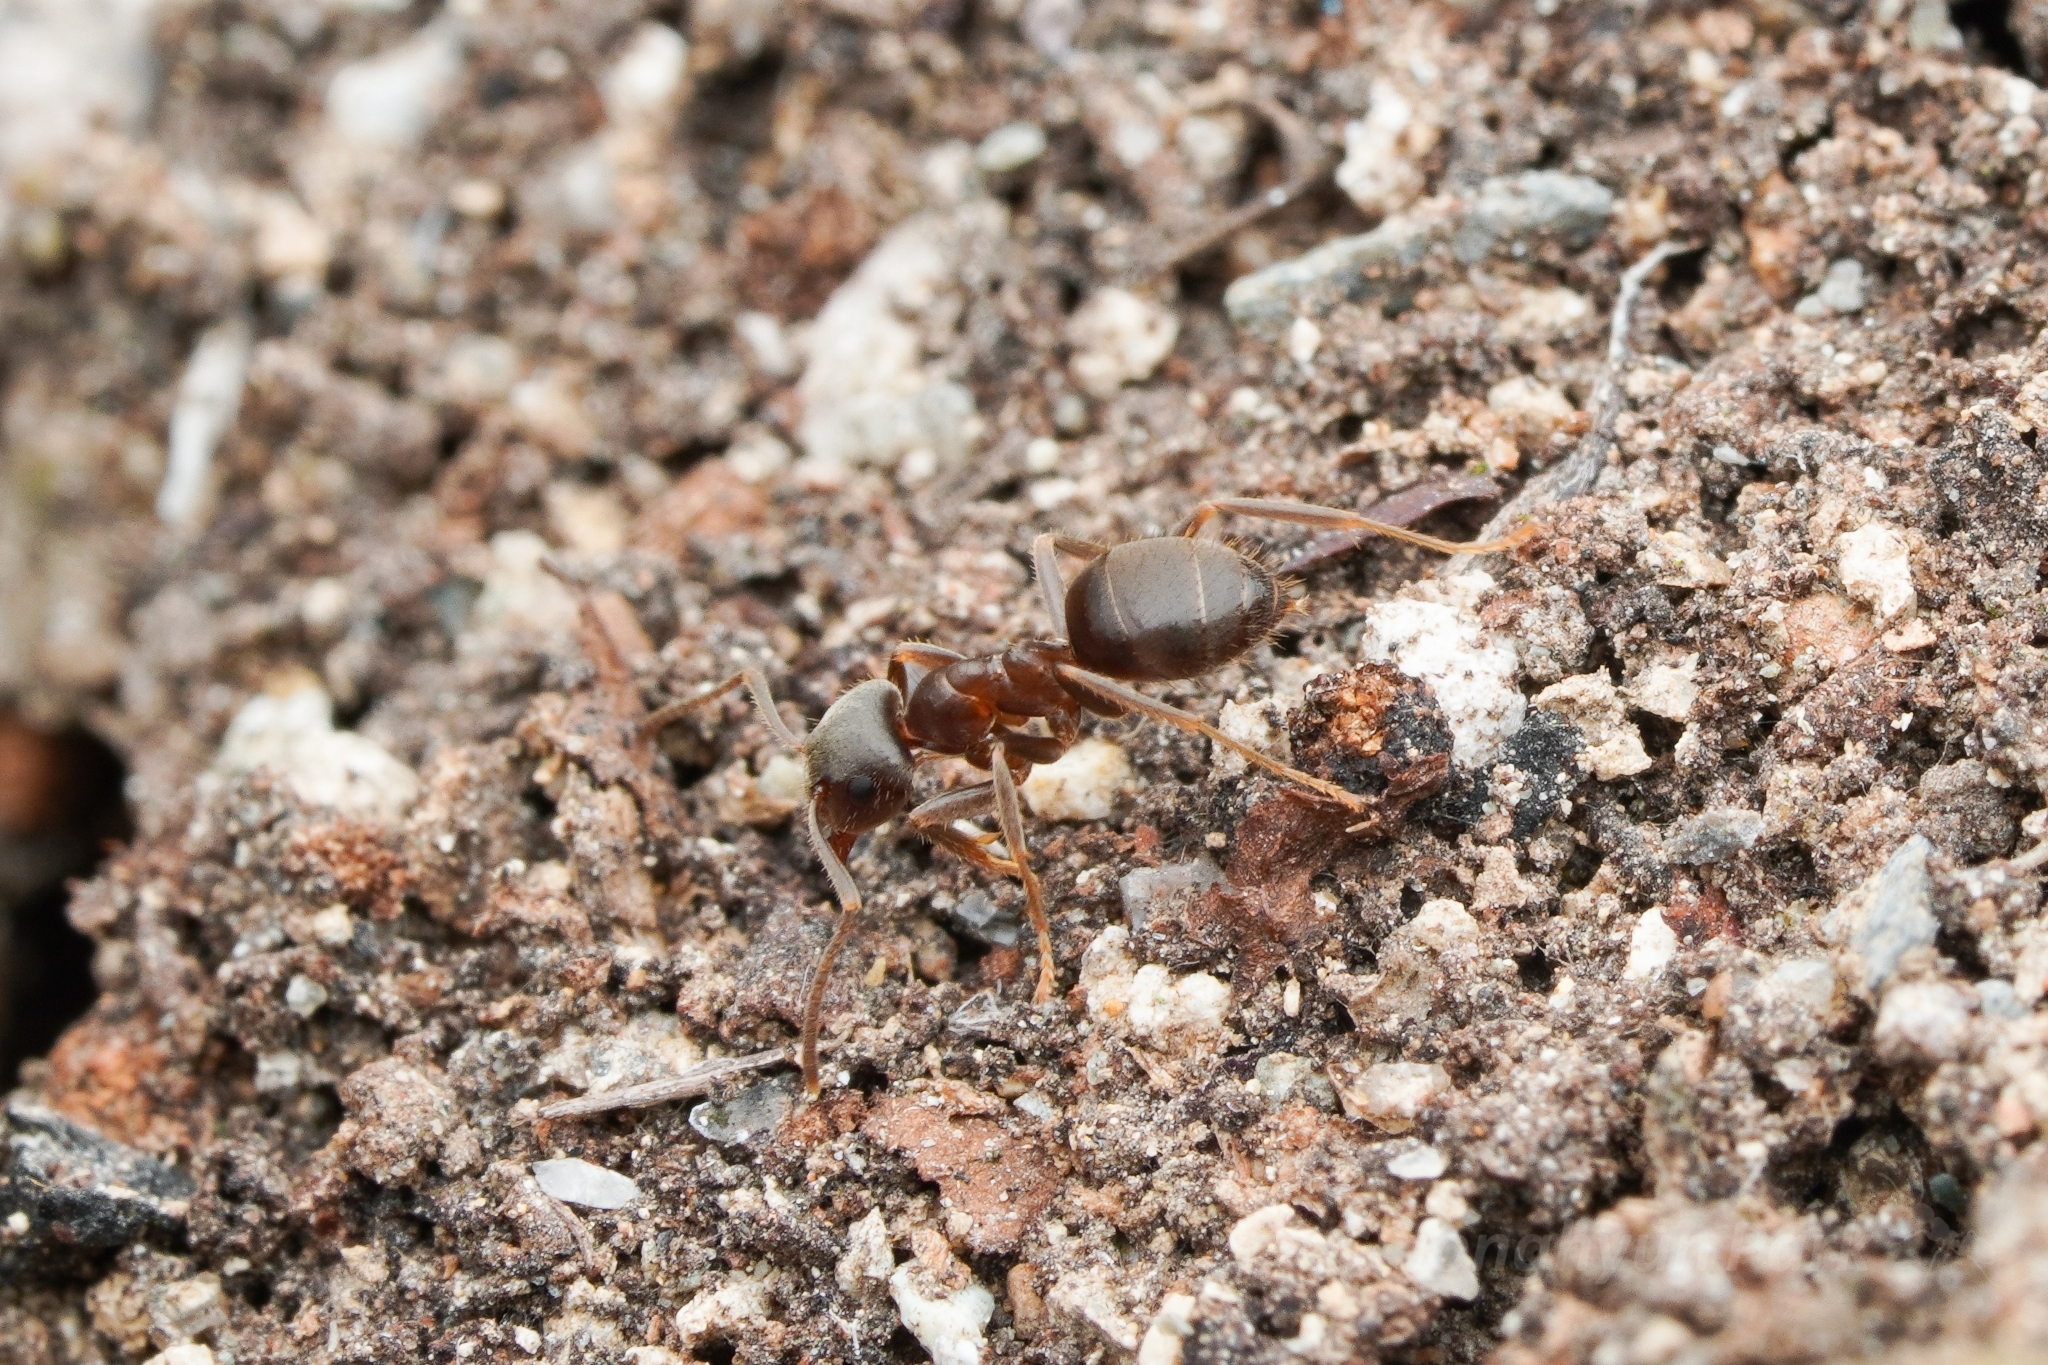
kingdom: Animalia
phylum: Arthropoda
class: Insecta
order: Hymenoptera
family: Formicidae
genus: Lasius
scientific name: Lasius japonicus
